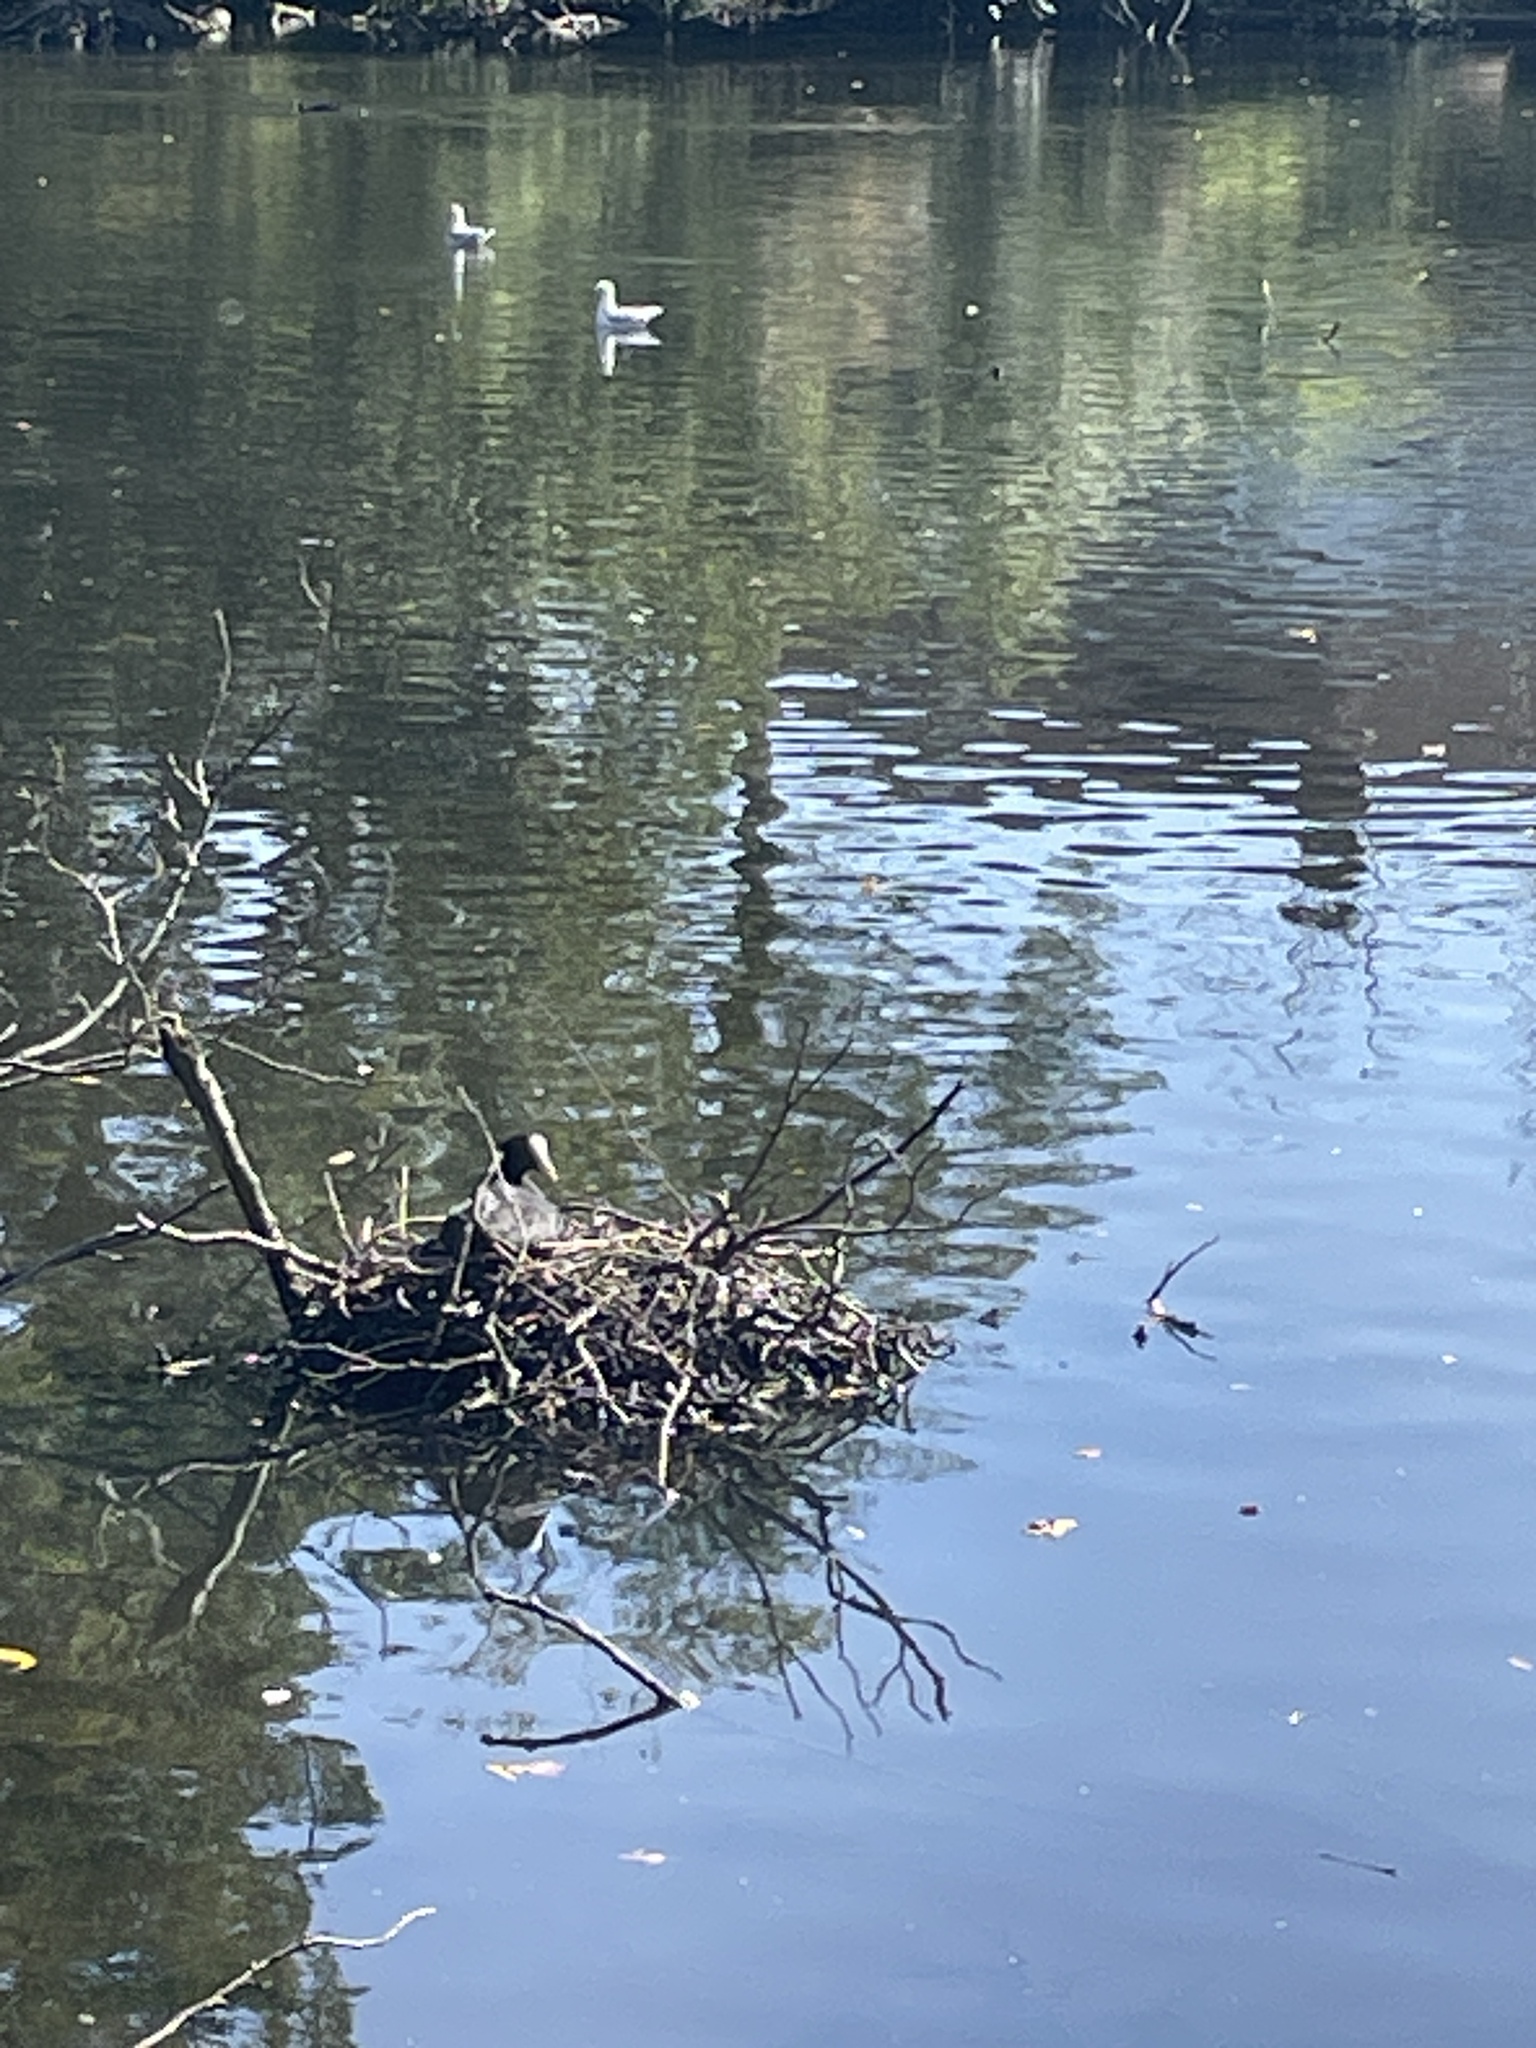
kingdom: Animalia
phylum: Chordata
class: Aves
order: Gruiformes
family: Rallidae
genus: Fulica
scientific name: Fulica atra
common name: Eurasian coot
